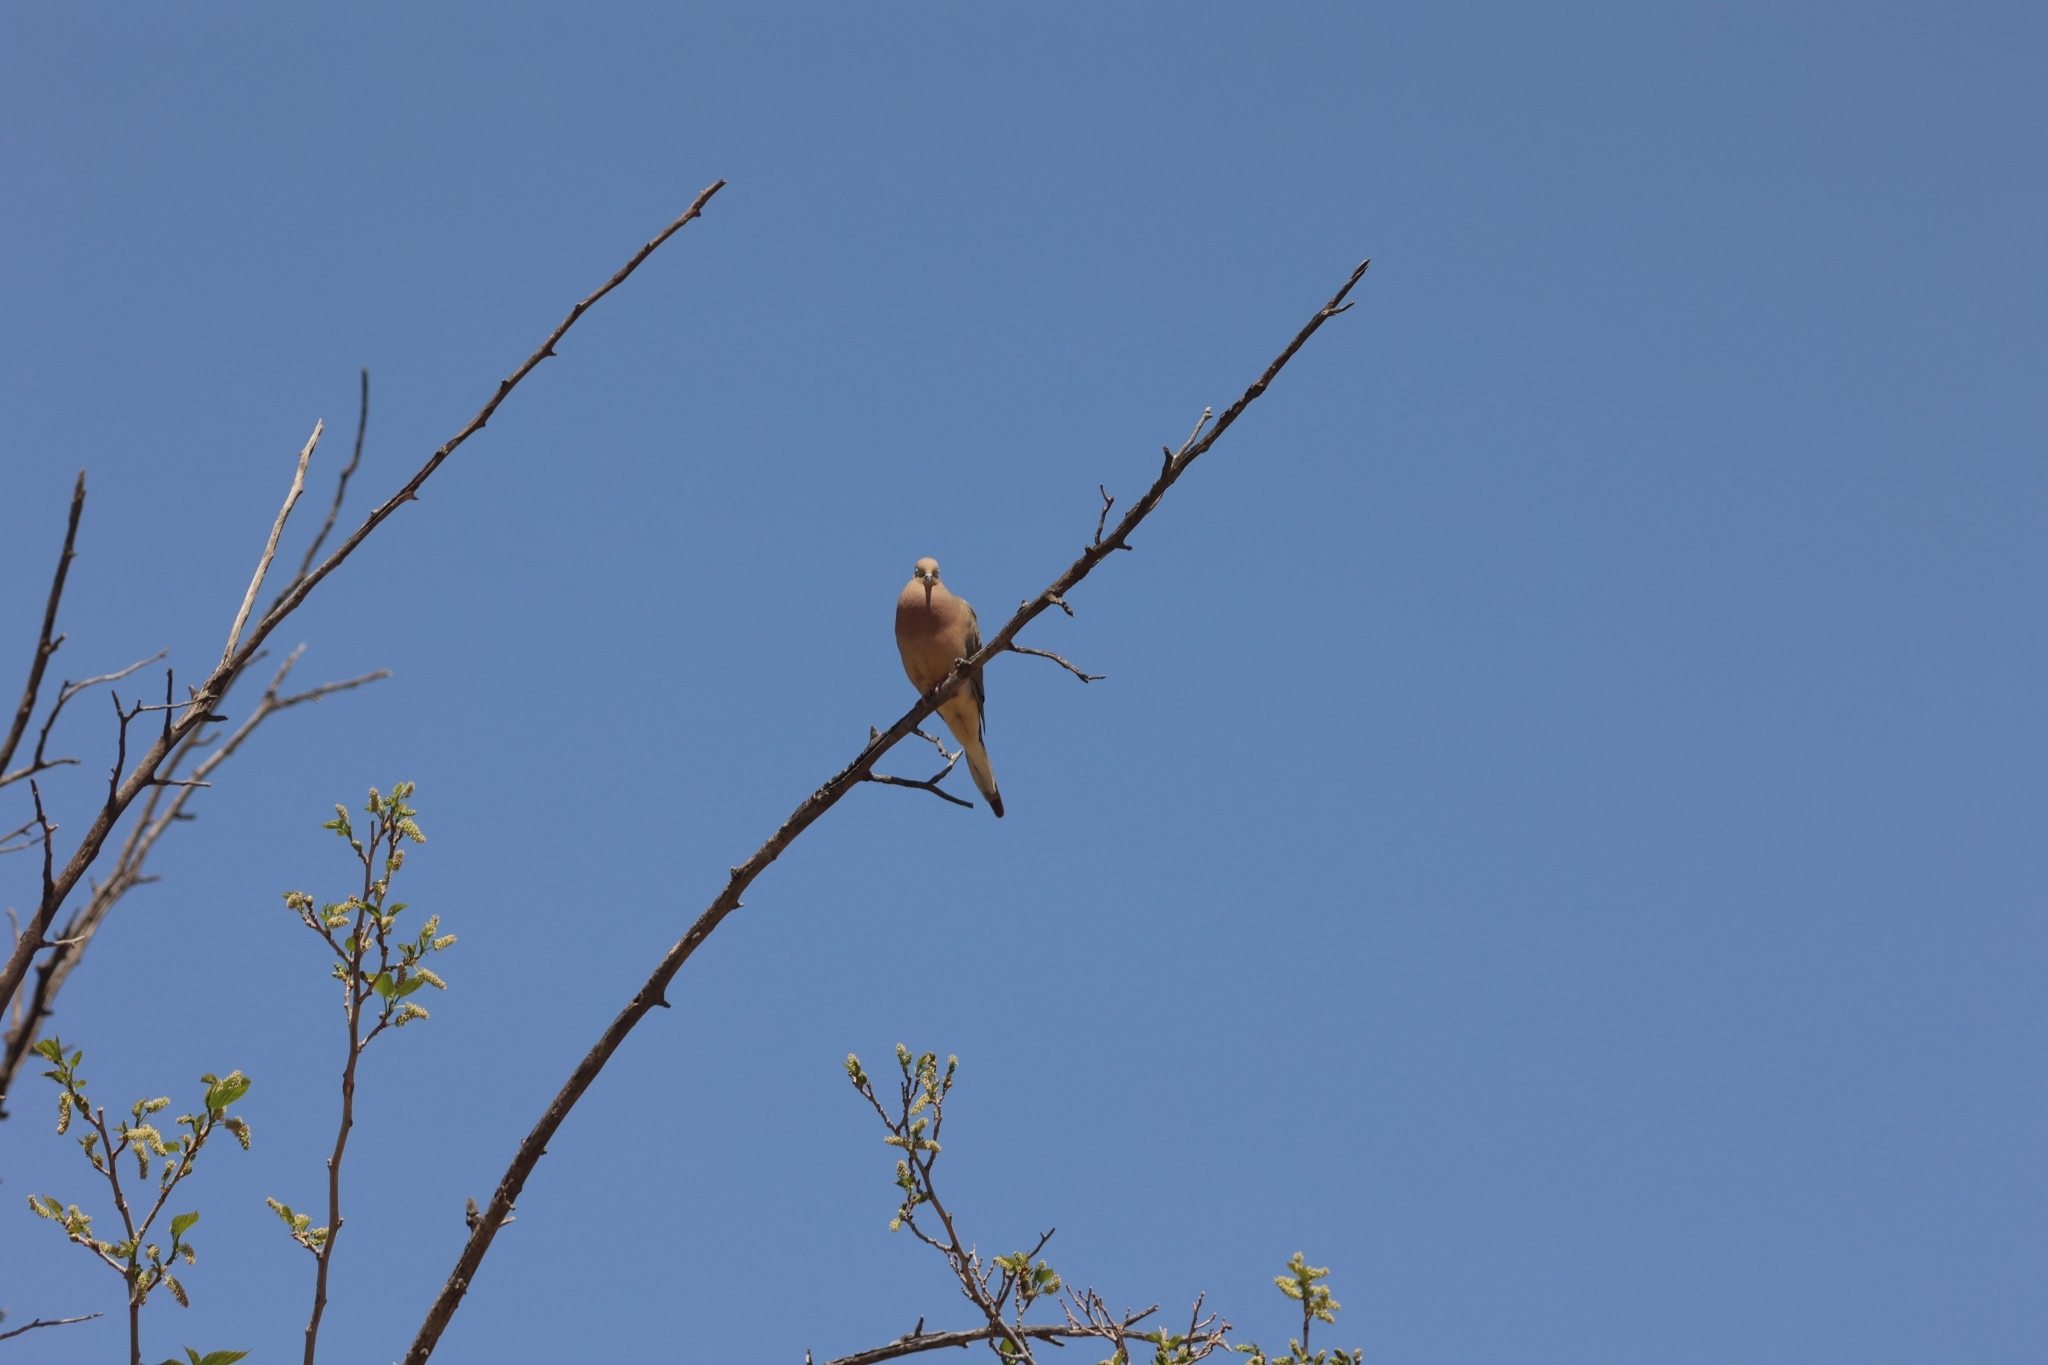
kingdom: Animalia
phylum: Chordata
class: Aves
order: Columbiformes
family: Columbidae
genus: Zenaida
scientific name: Zenaida macroura
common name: Mourning dove
